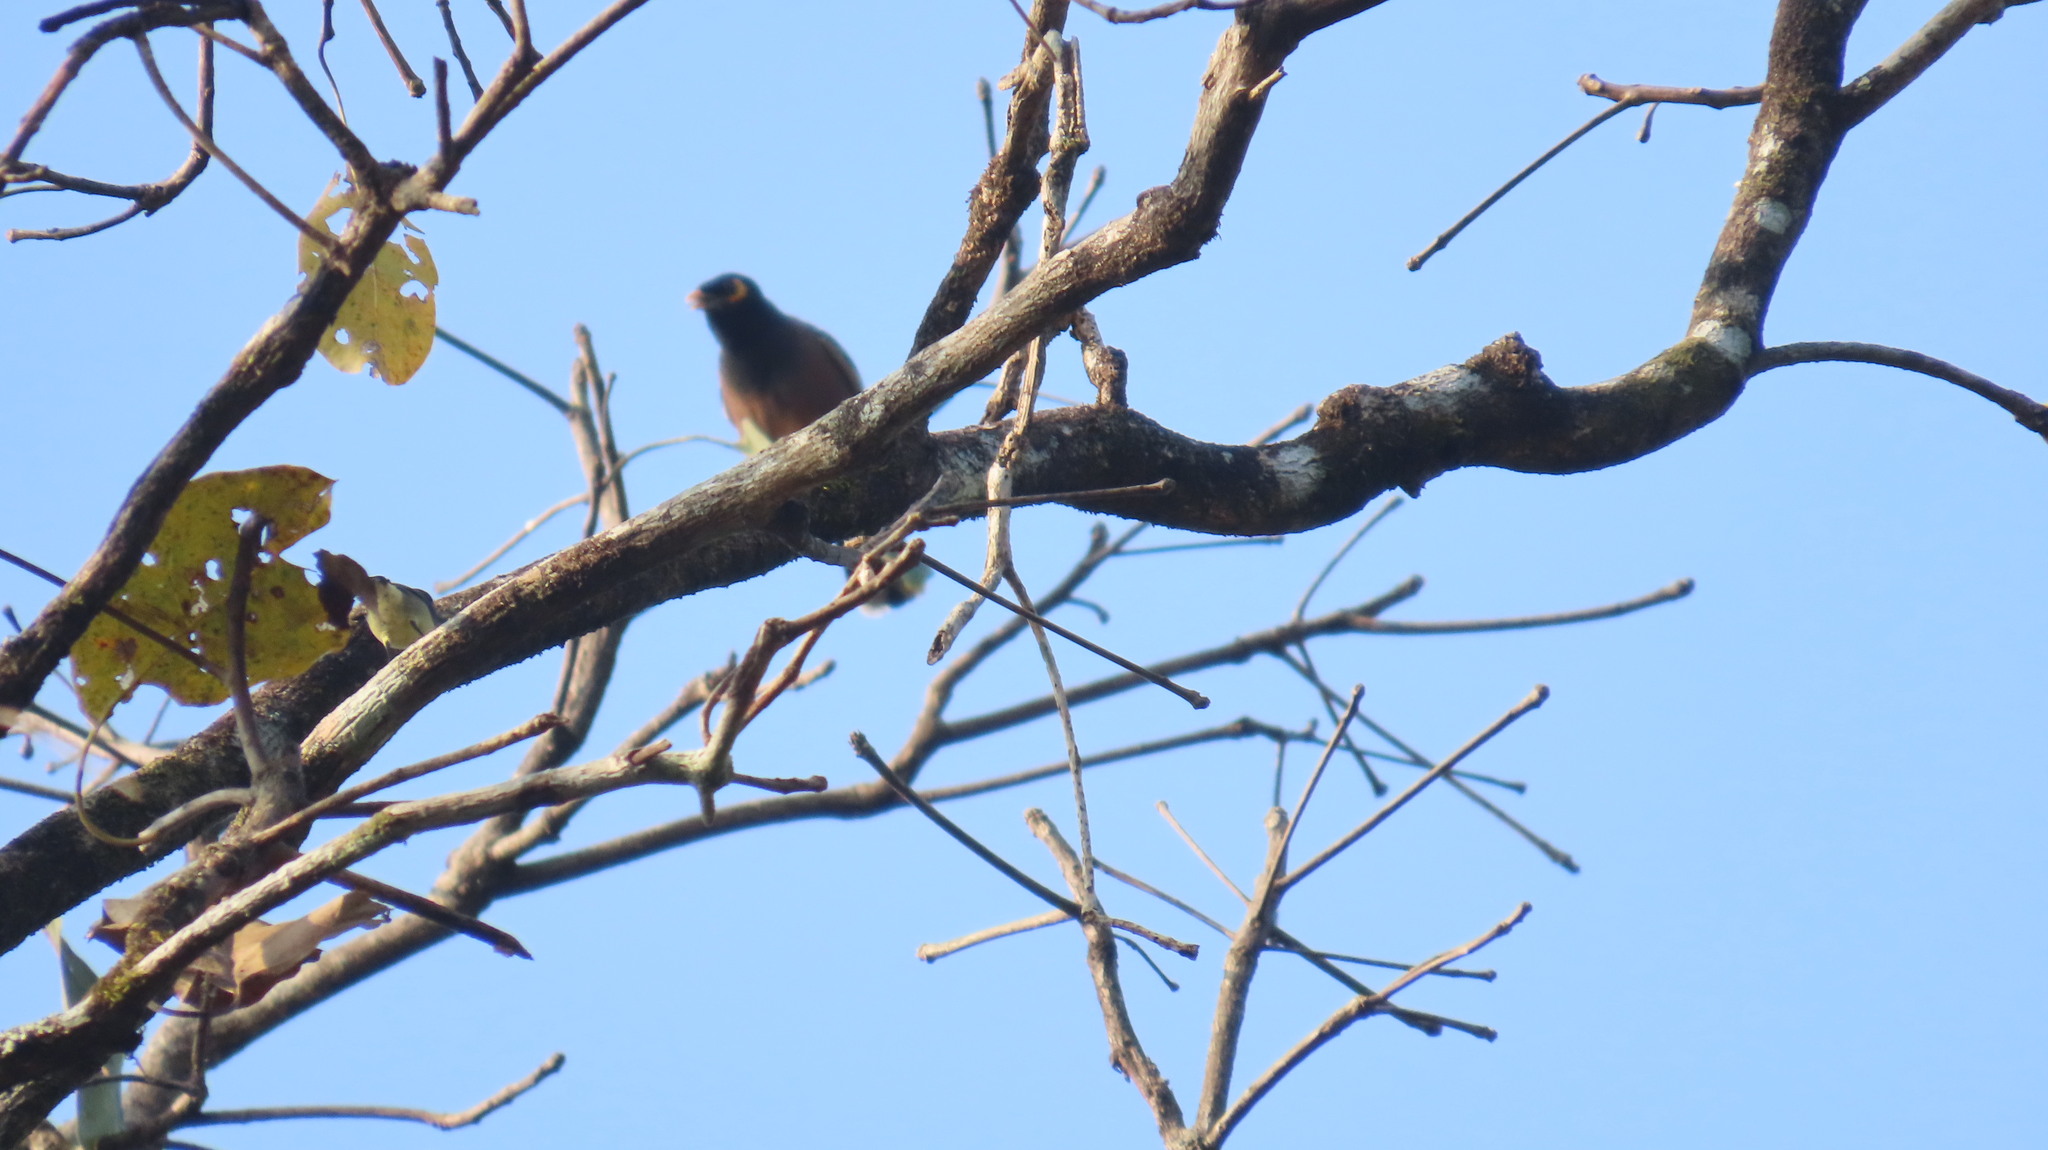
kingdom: Animalia
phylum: Chordata
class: Aves
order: Passeriformes
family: Sturnidae
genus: Acridotheres
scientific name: Acridotheres tristis
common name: Common myna
